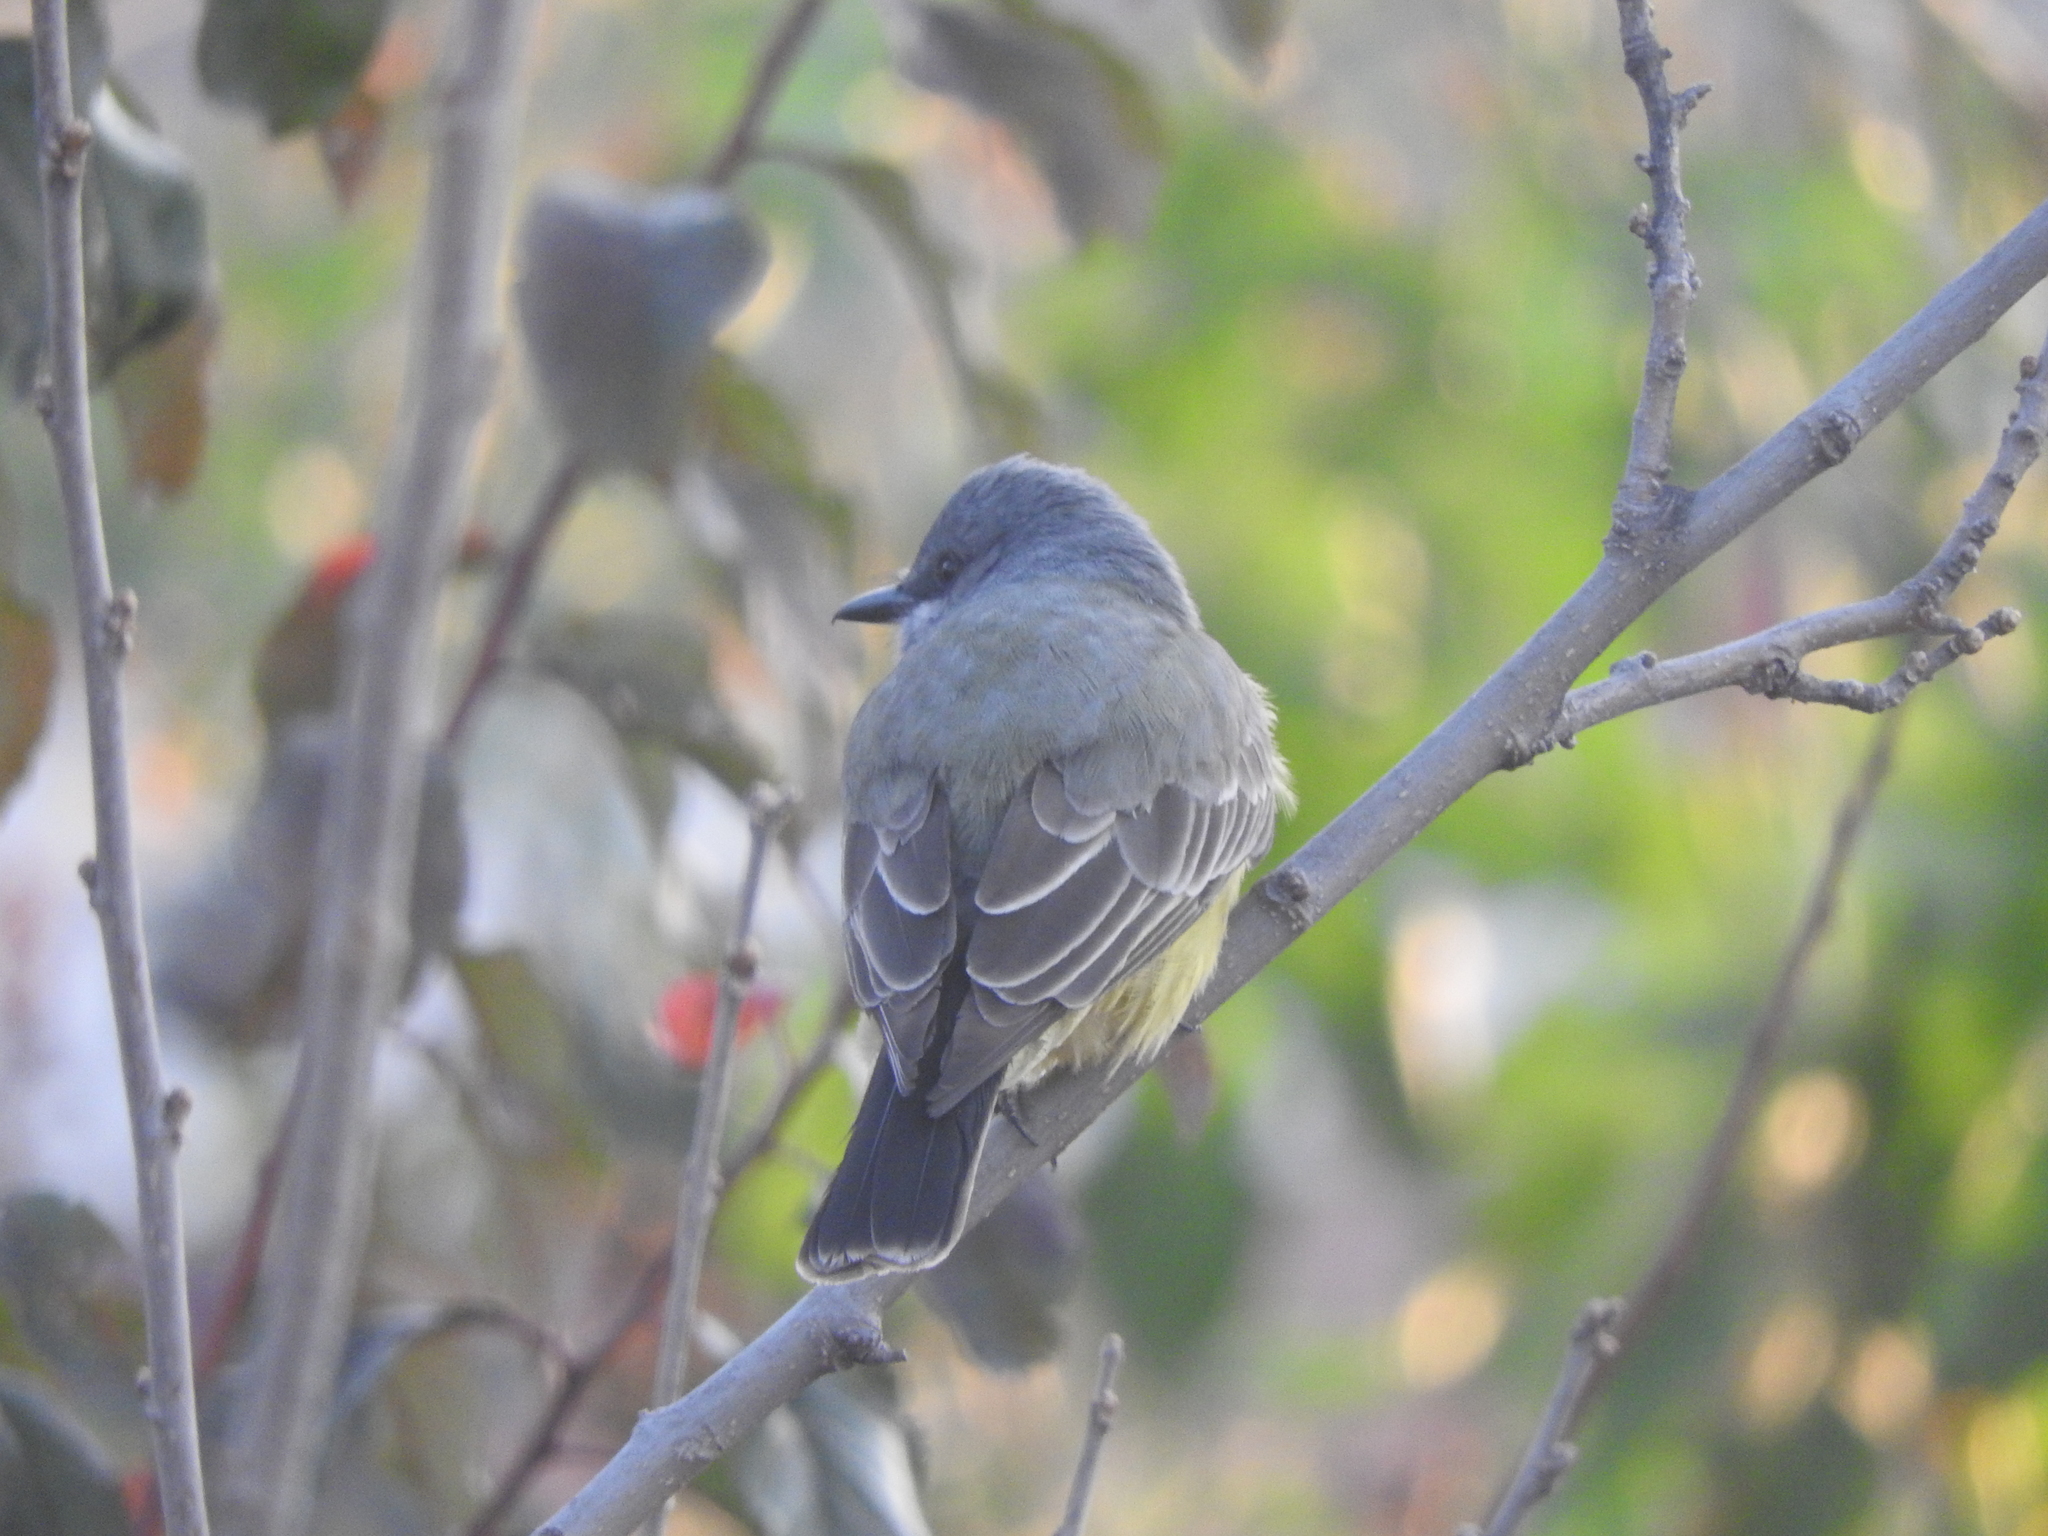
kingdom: Animalia
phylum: Chordata
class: Aves
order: Passeriformes
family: Tyrannidae
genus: Tyrannus
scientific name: Tyrannus vociferans
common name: Cassin's kingbird
